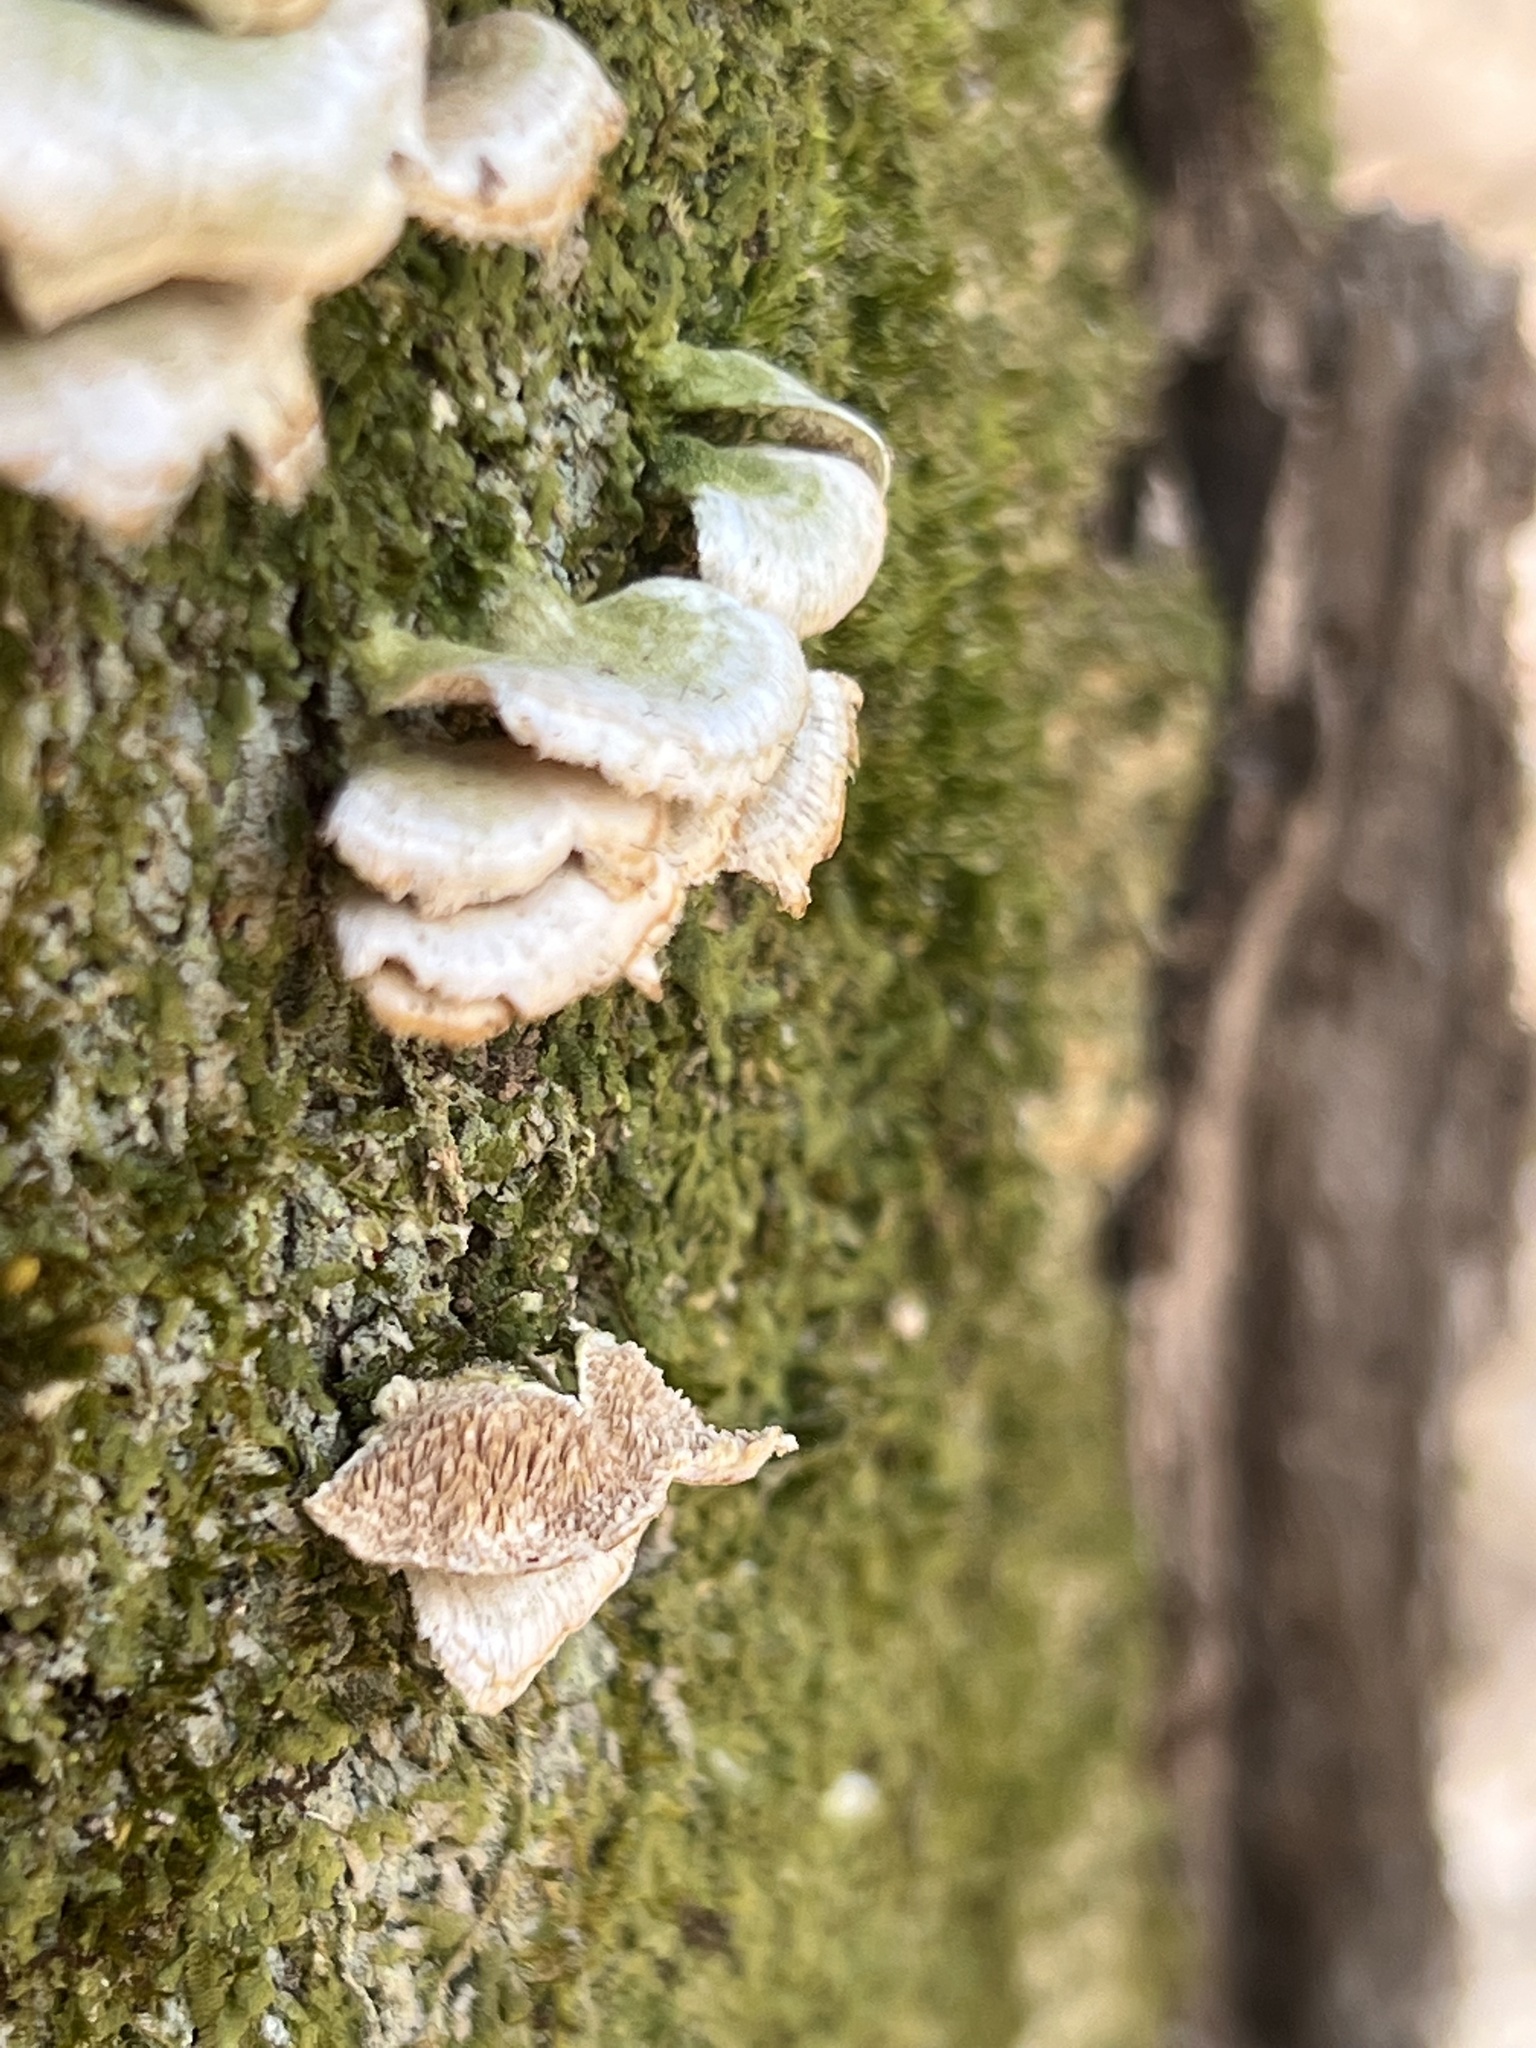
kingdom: Fungi
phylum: Basidiomycota
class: Agaricomycetes
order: Hymenochaetales
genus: Trichaptum
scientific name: Trichaptum biforme
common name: Violet-toothed polypore
